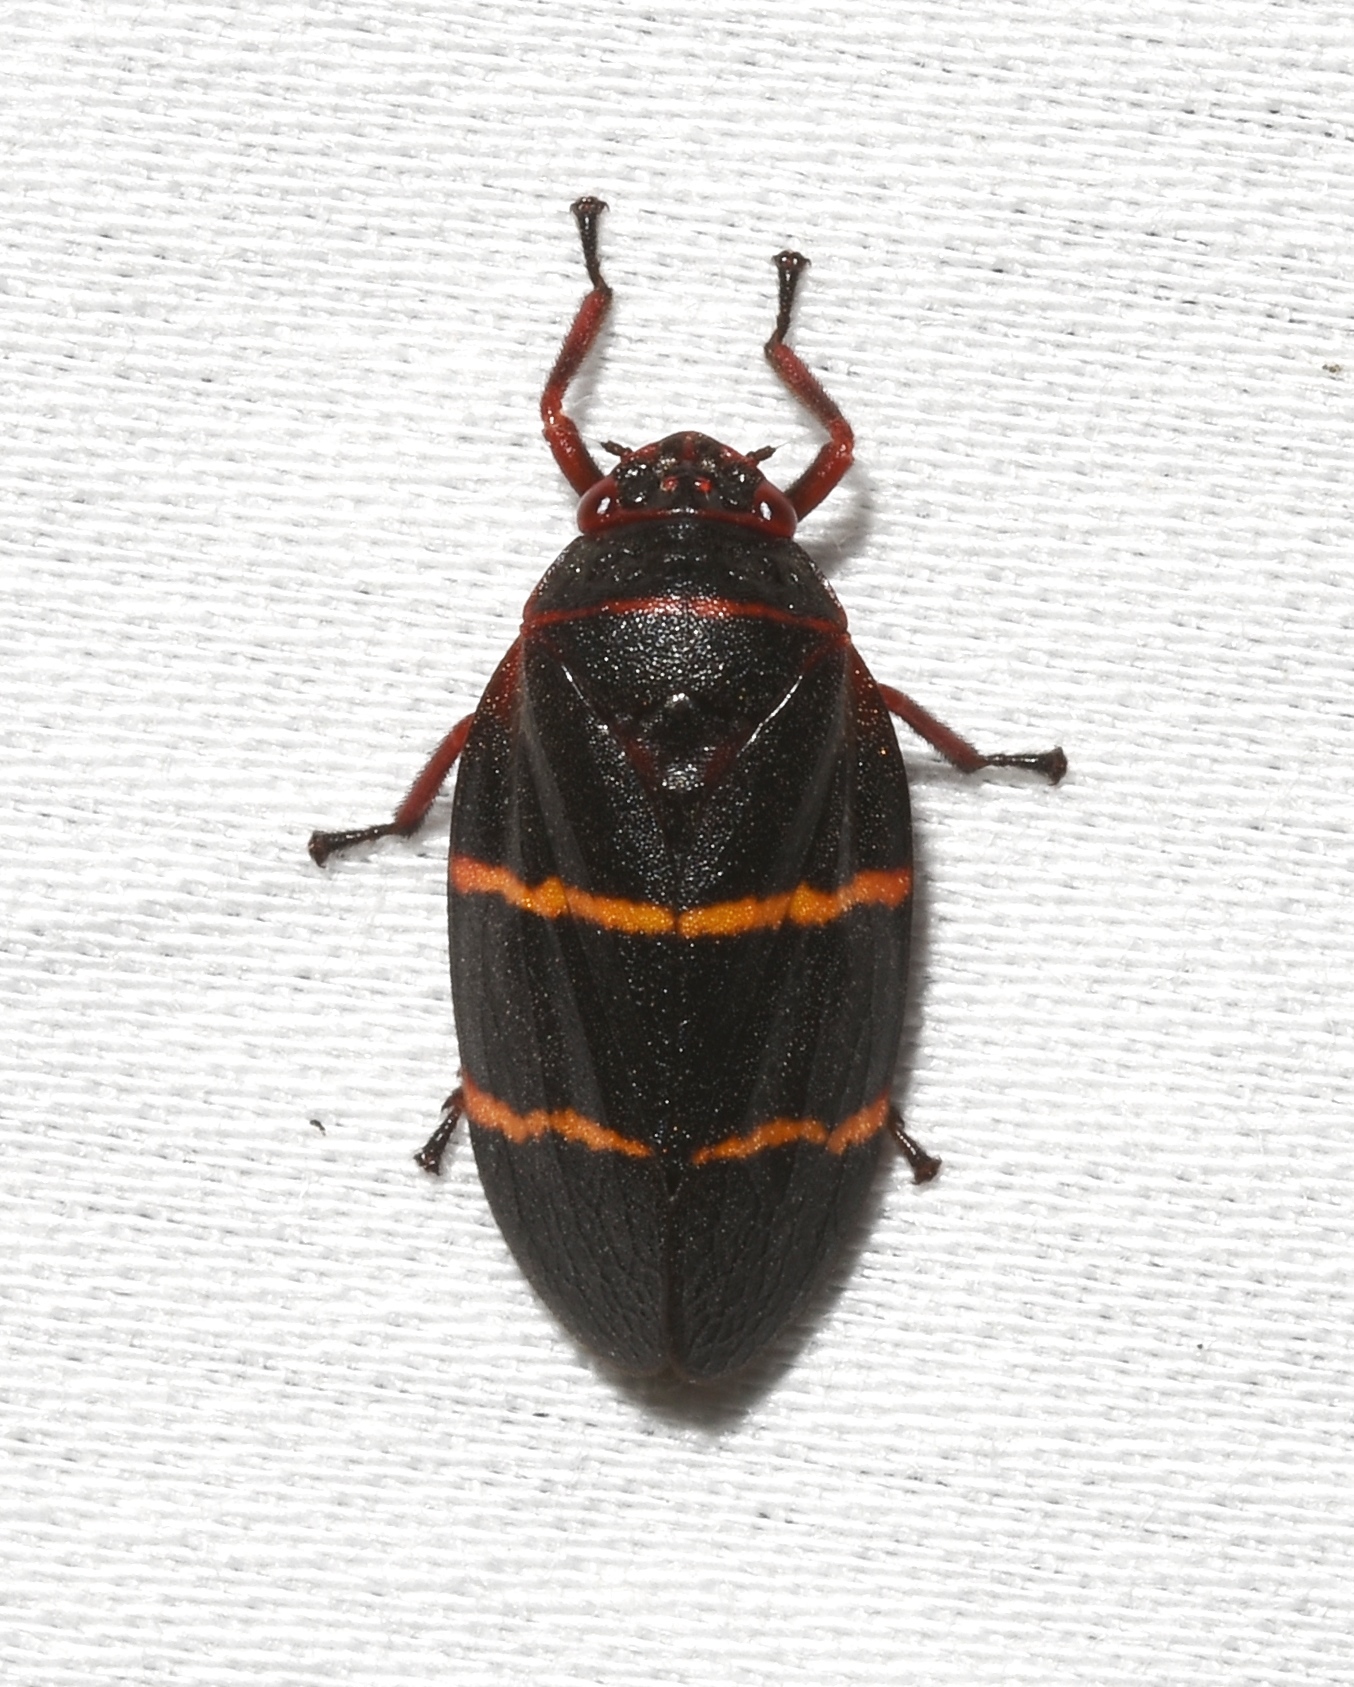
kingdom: Animalia
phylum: Arthropoda
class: Insecta
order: Hemiptera
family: Cercopidae
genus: Prosapia
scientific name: Prosapia bicincta
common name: Twolined spittlebug
